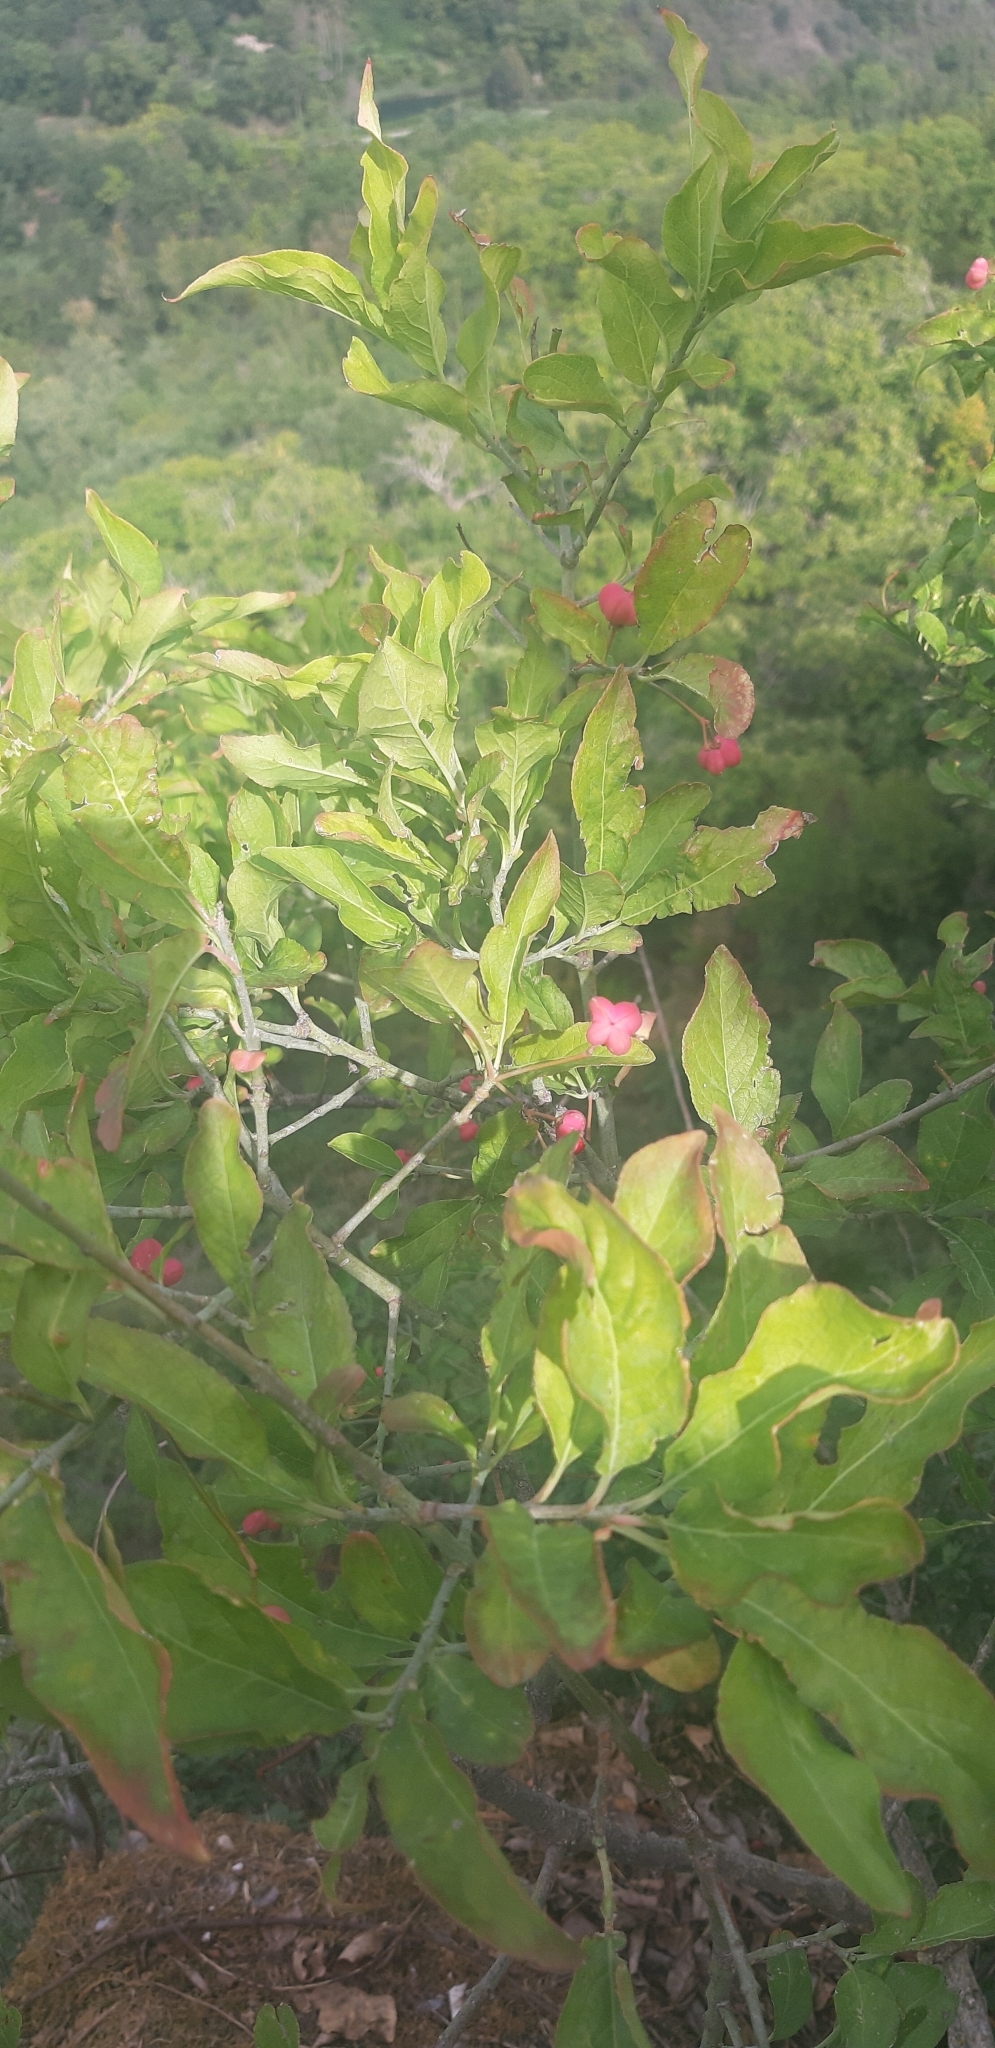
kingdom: Plantae
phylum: Tracheophyta
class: Magnoliopsida
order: Celastrales
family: Celastraceae
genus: Euonymus
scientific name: Euonymus europaeus
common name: Spindle
